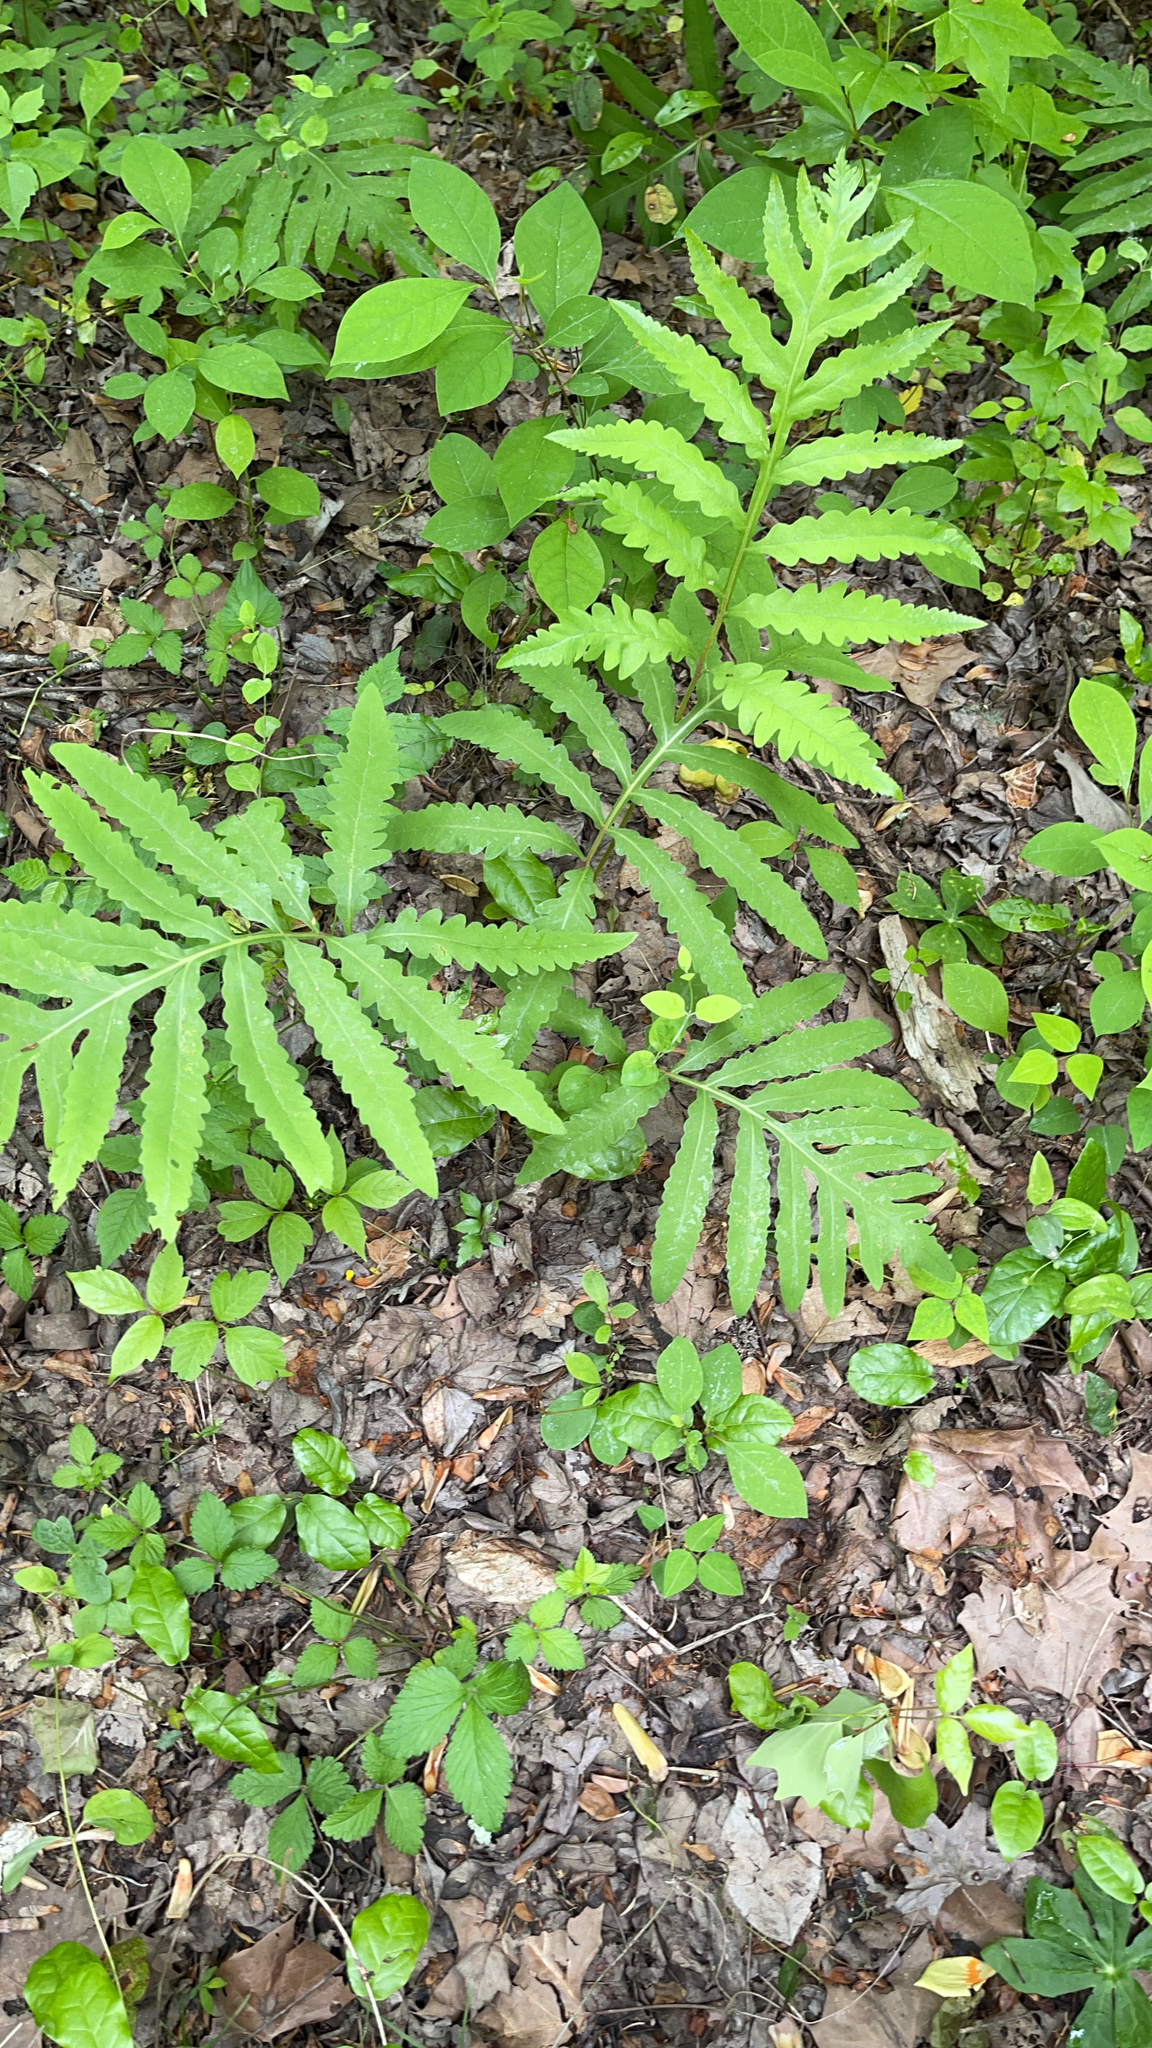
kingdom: Plantae
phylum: Tracheophyta
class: Polypodiopsida
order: Polypodiales
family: Onocleaceae
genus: Onoclea
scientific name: Onoclea sensibilis
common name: Sensitive fern
